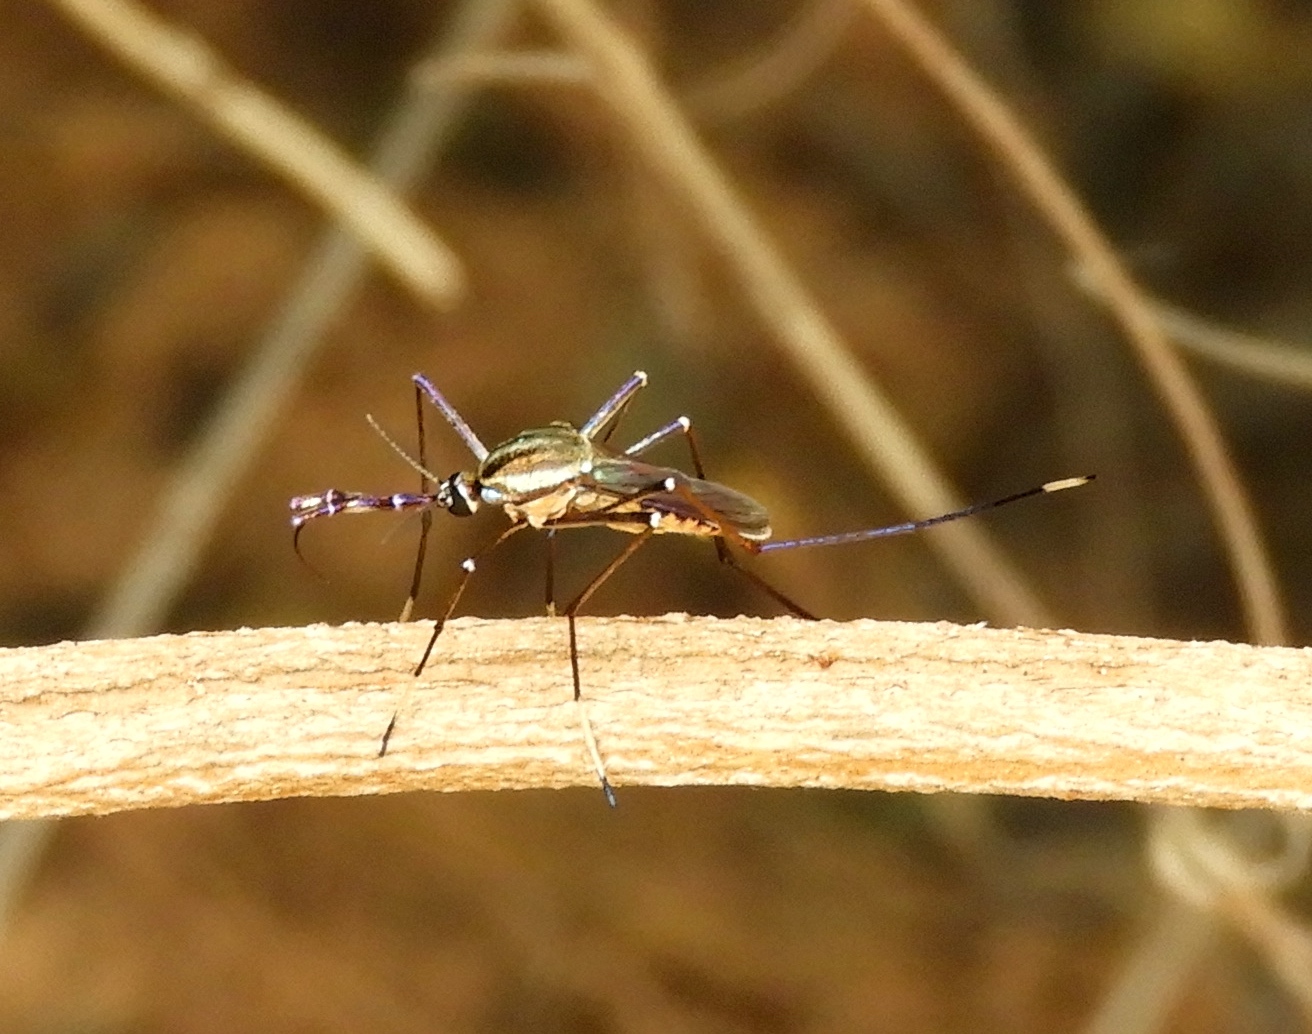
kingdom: Animalia
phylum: Arthropoda
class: Insecta
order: Diptera
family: Culicidae
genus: Toxorhynchites
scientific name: Toxorhynchites rutilus
